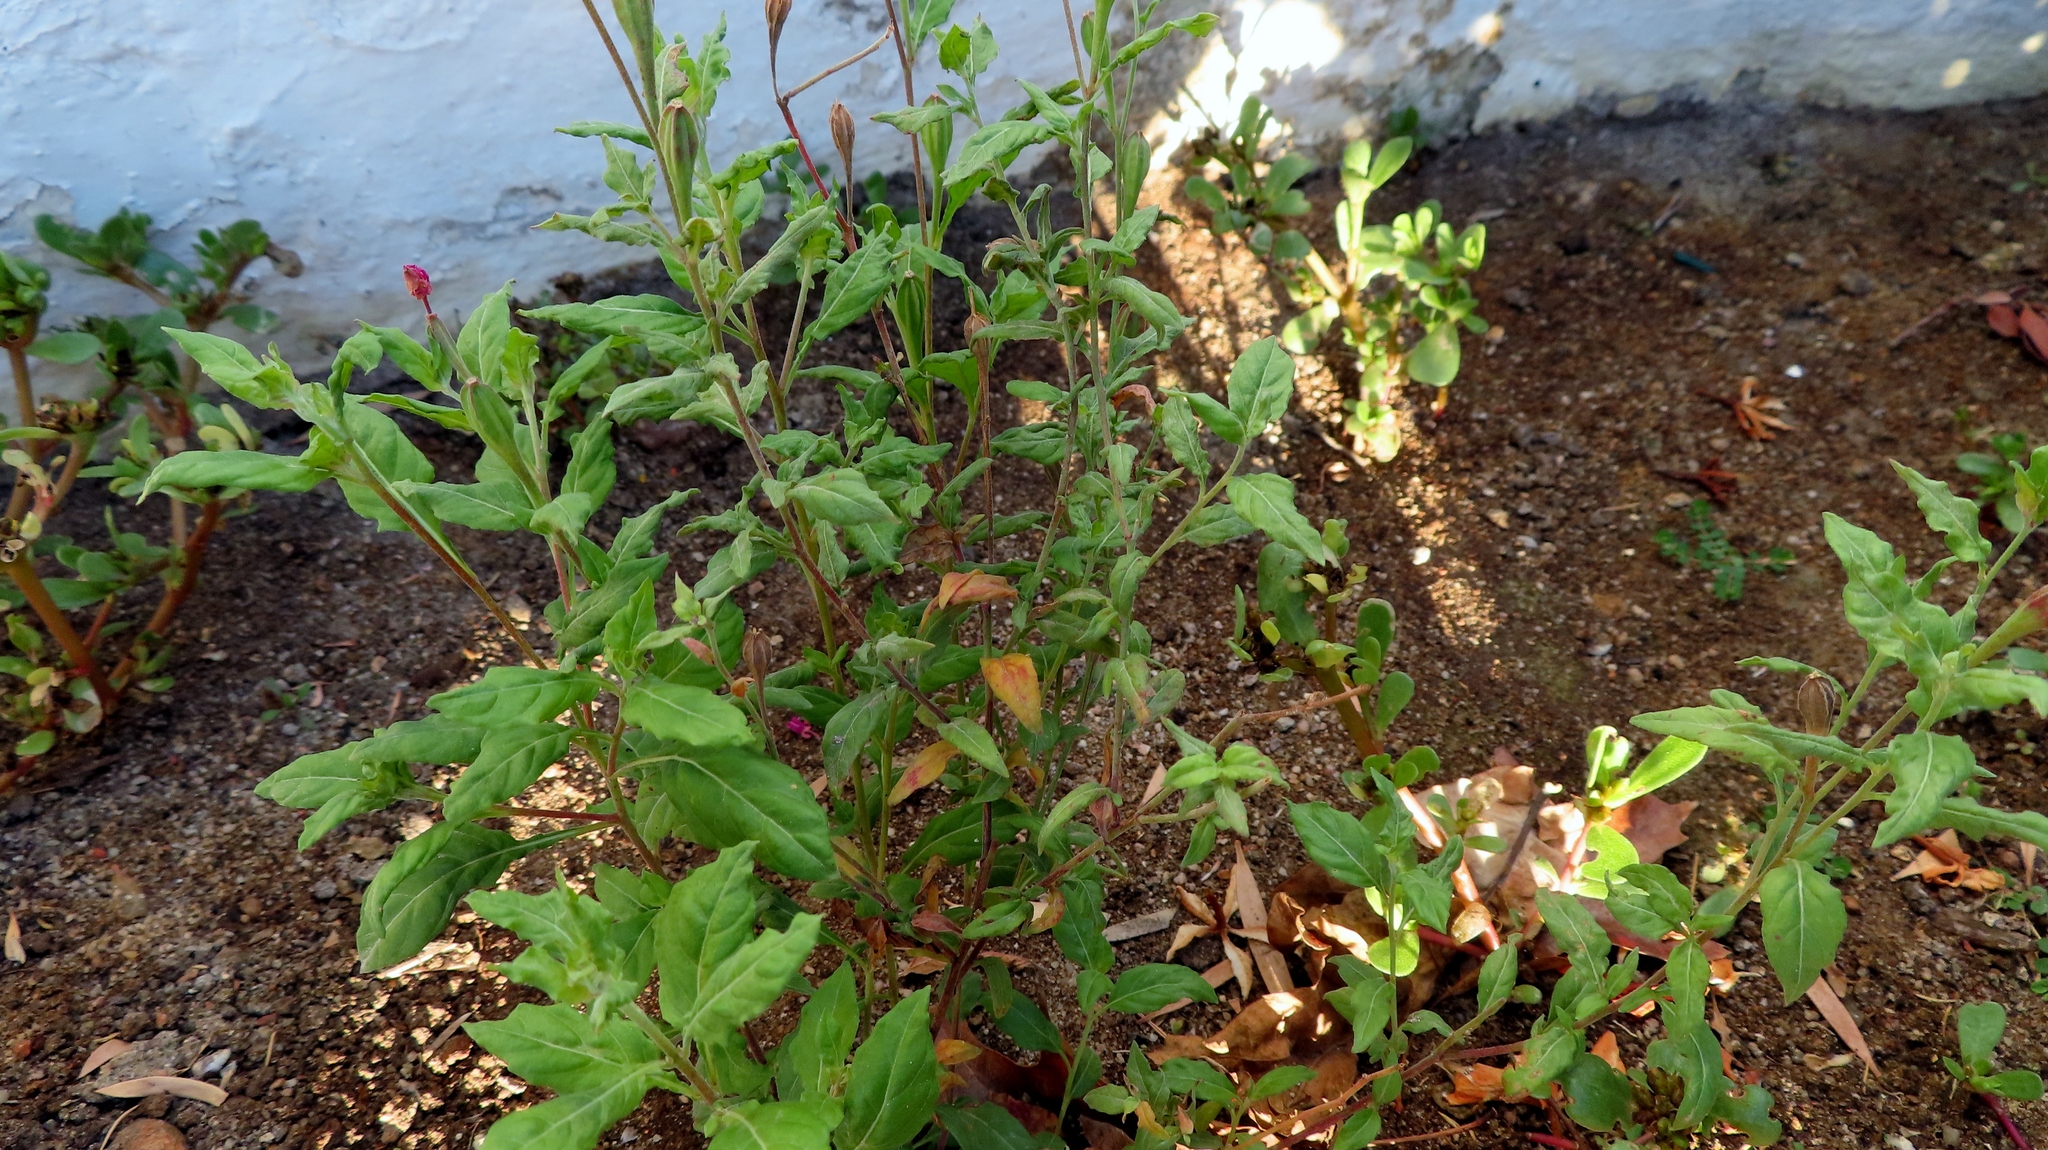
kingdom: Plantae
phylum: Tracheophyta
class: Magnoliopsida
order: Myrtales
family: Onagraceae
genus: Oenothera
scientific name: Oenothera rosea
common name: Rosy evening-primrose
